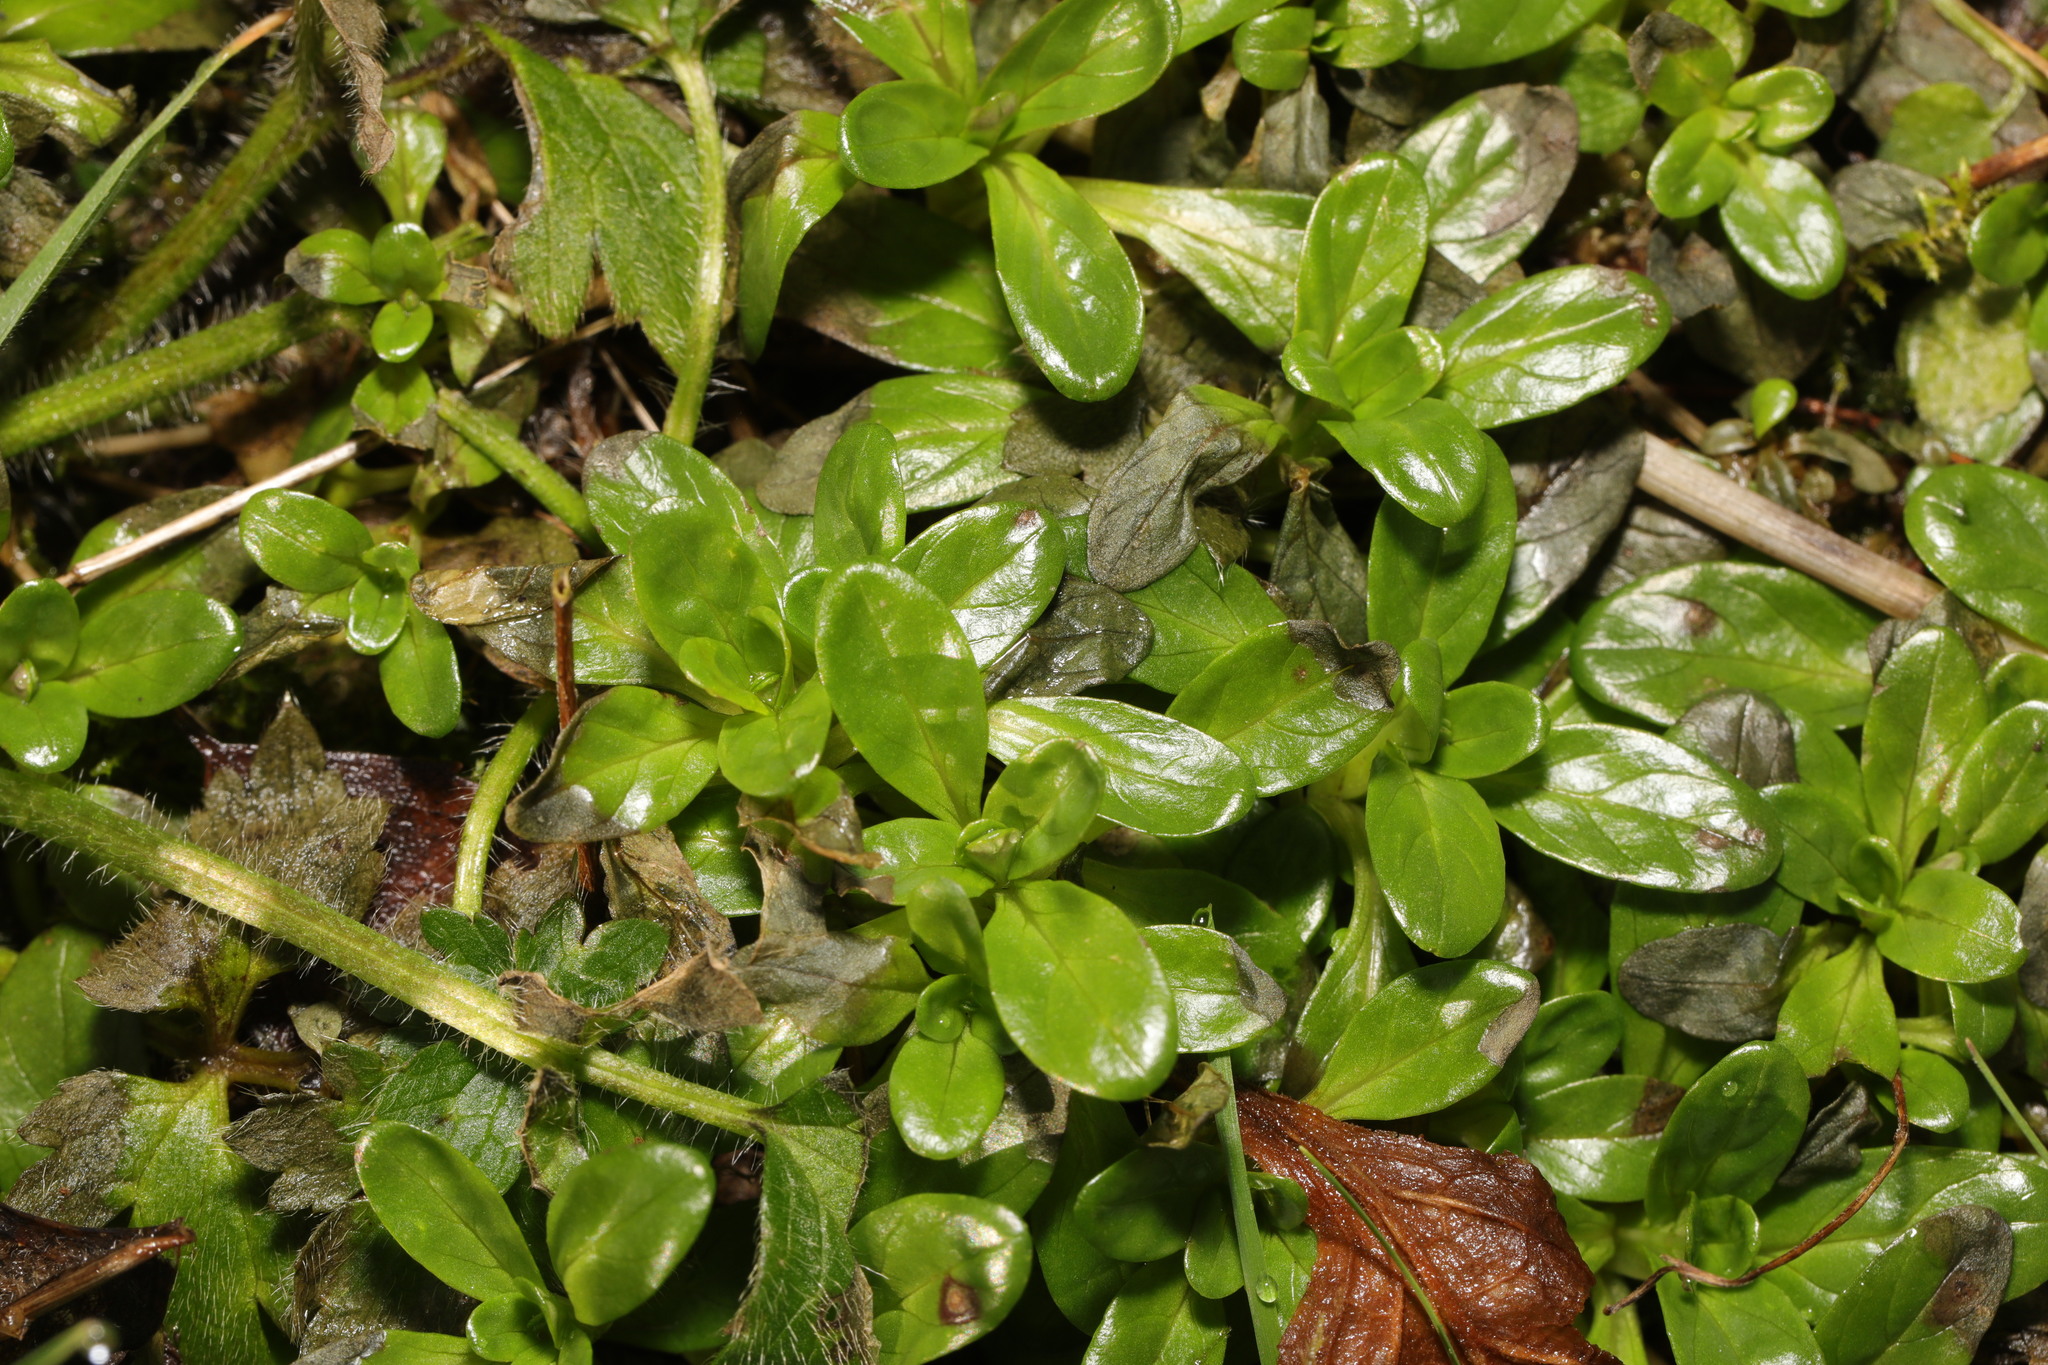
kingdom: Plantae
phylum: Tracheophyta
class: Magnoliopsida
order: Boraginales
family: Boraginaceae
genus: Myosotis
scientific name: Myosotis scorpioides
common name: Water forget-me-not
